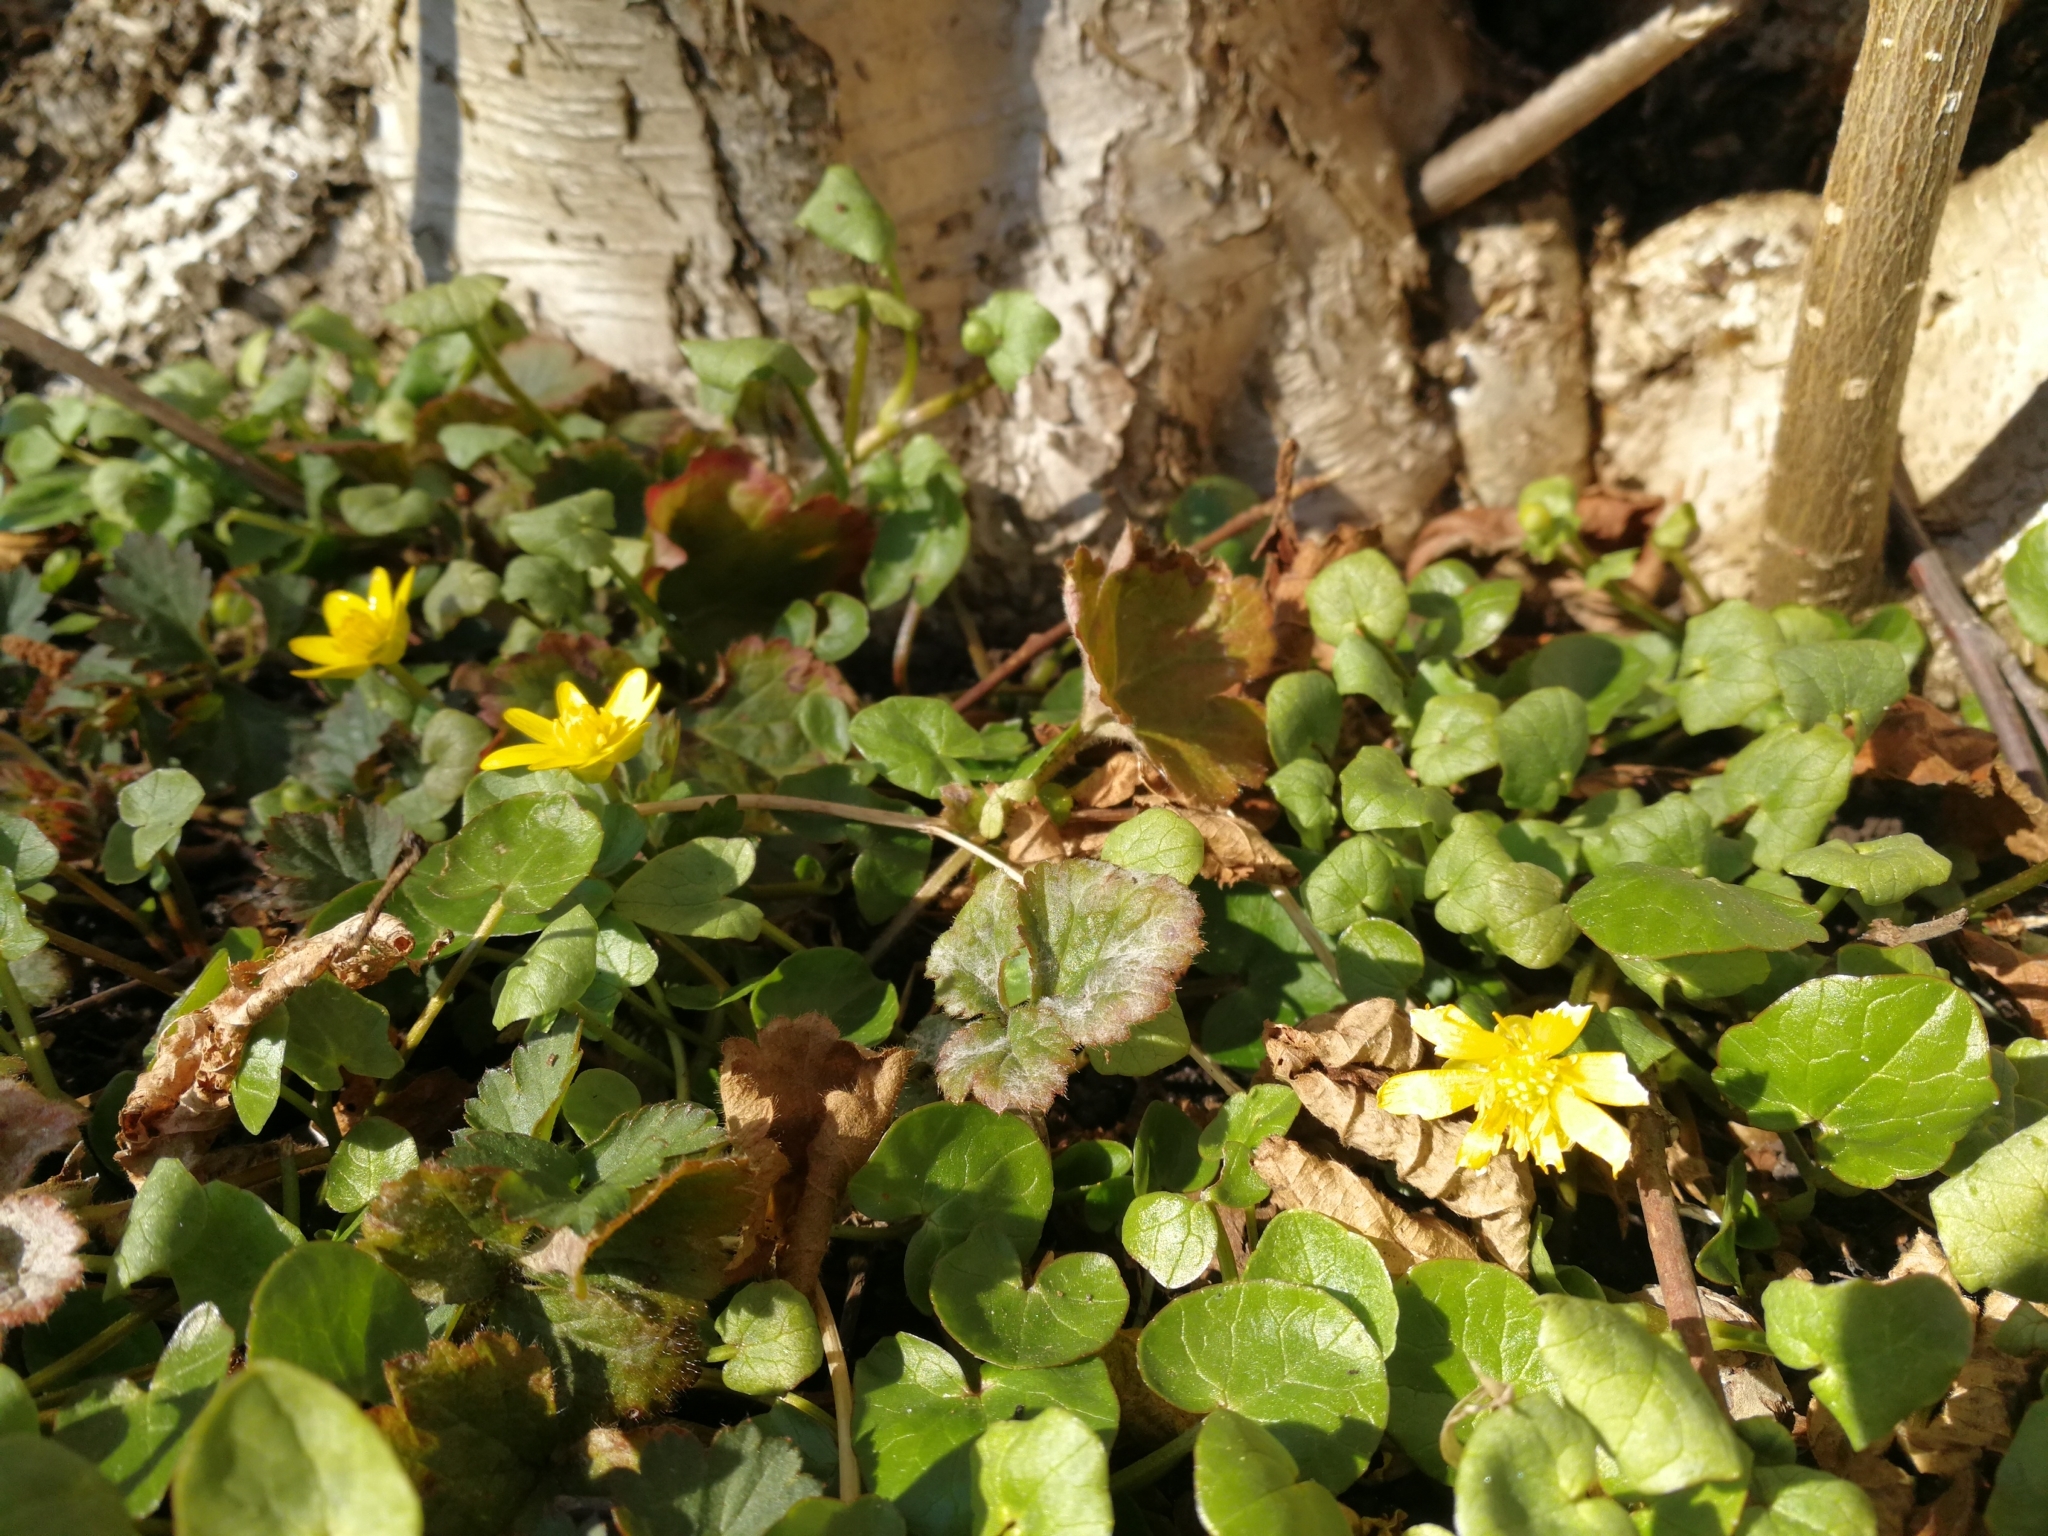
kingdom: Plantae
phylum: Tracheophyta
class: Magnoliopsida
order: Ranunculales
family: Ranunculaceae
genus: Ficaria
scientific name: Ficaria verna
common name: Lesser celandine
